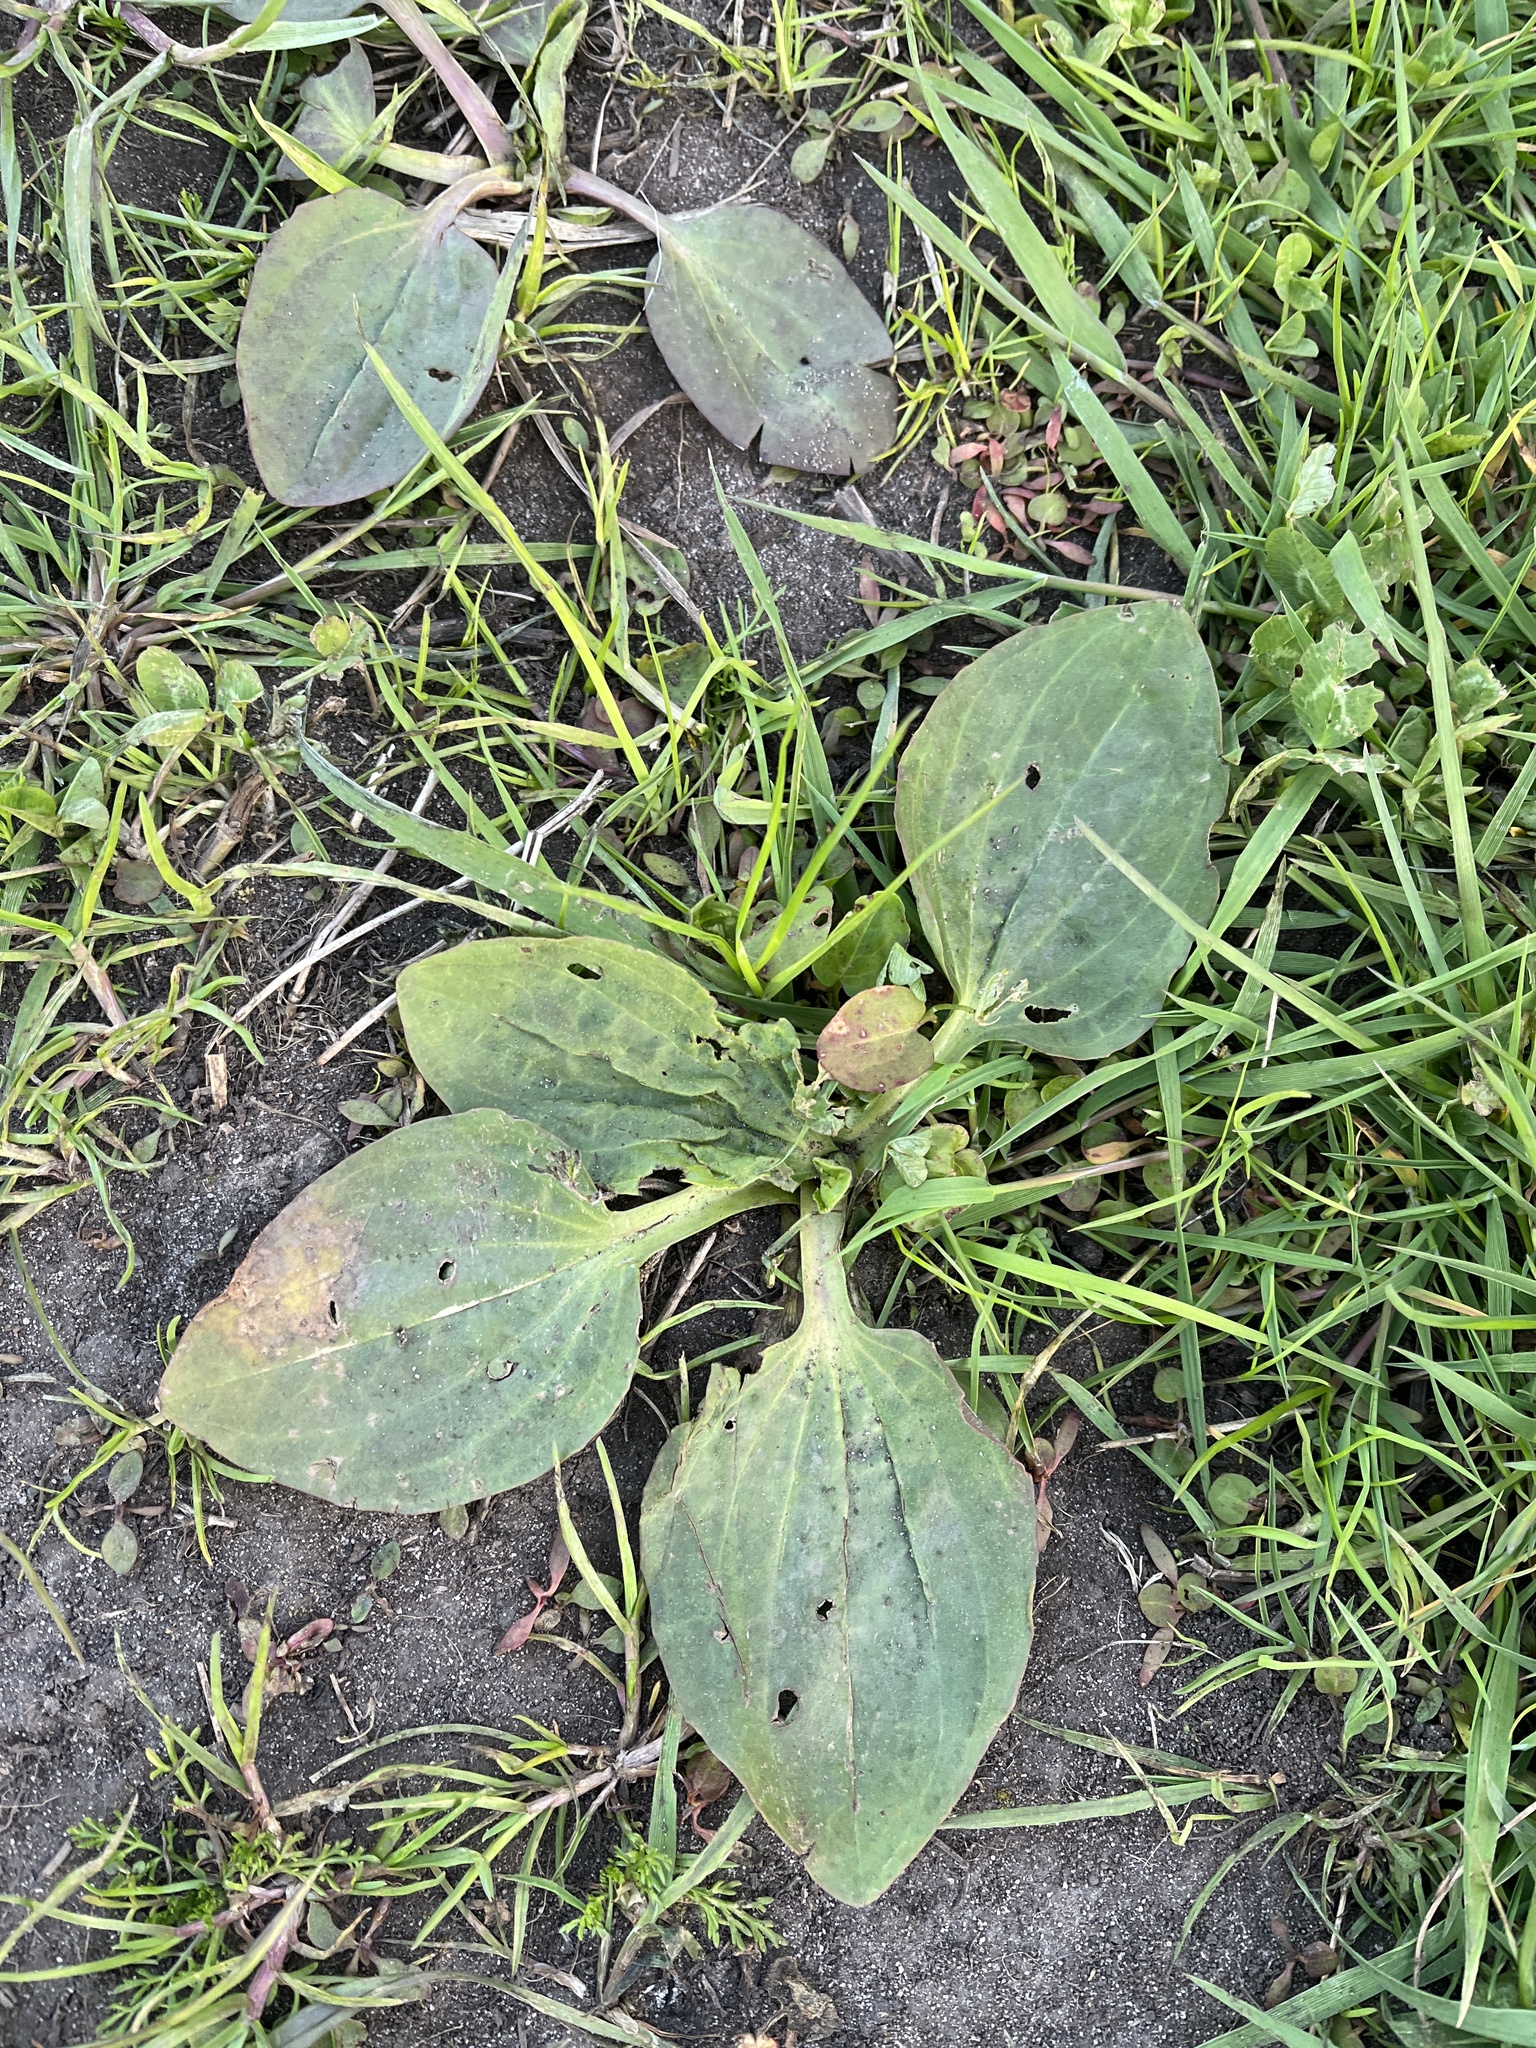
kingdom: Plantae
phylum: Tracheophyta
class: Magnoliopsida
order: Lamiales
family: Plantaginaceae
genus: Plantago
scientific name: Plantago major
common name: Common plantain
